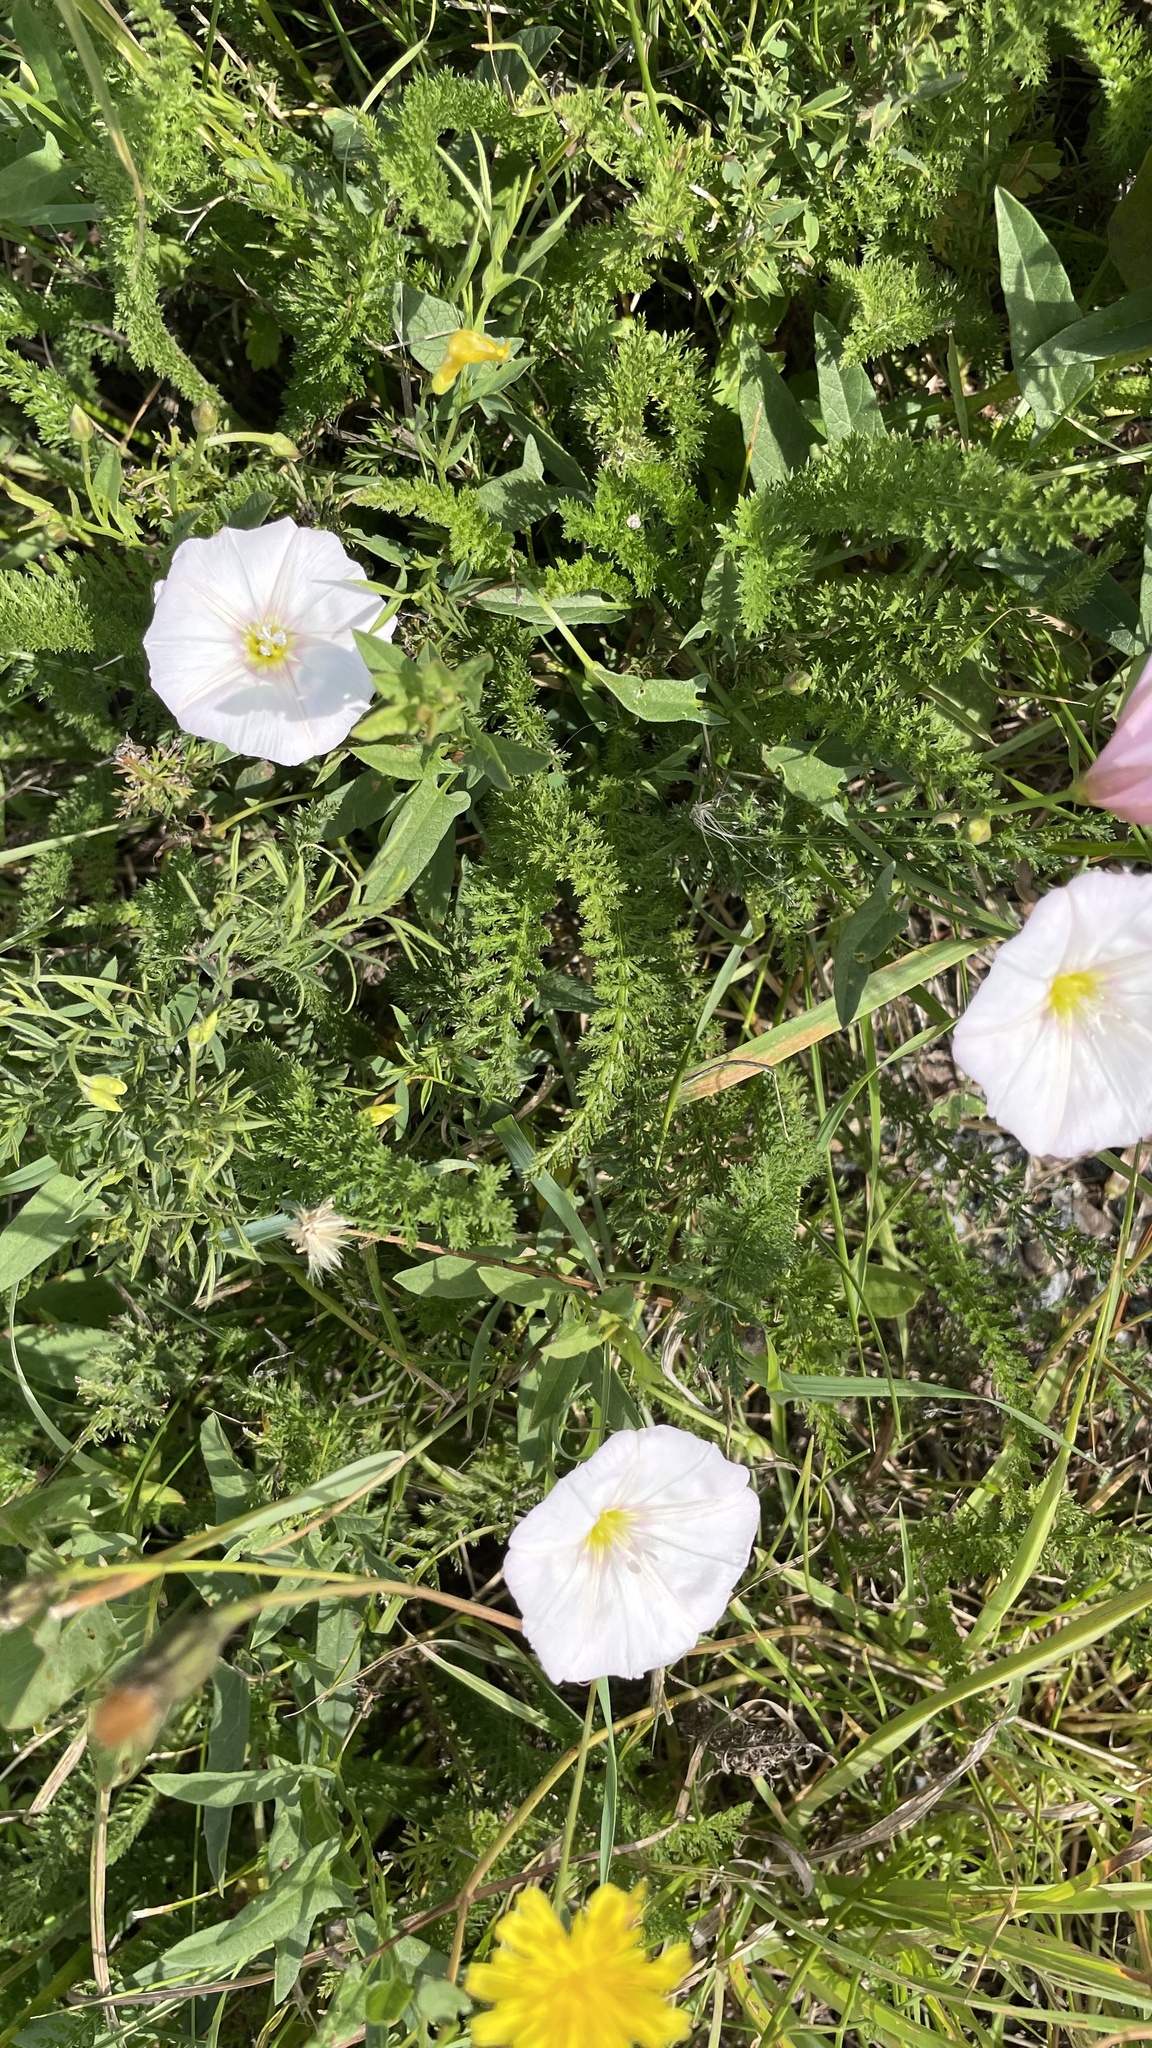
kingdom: Plantae
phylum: Tracheophyta
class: Magnoliopsida
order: Solanales
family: Convolvulaceae
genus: Convolvulus
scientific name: Convolvulus arvensis
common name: Field bindweed
